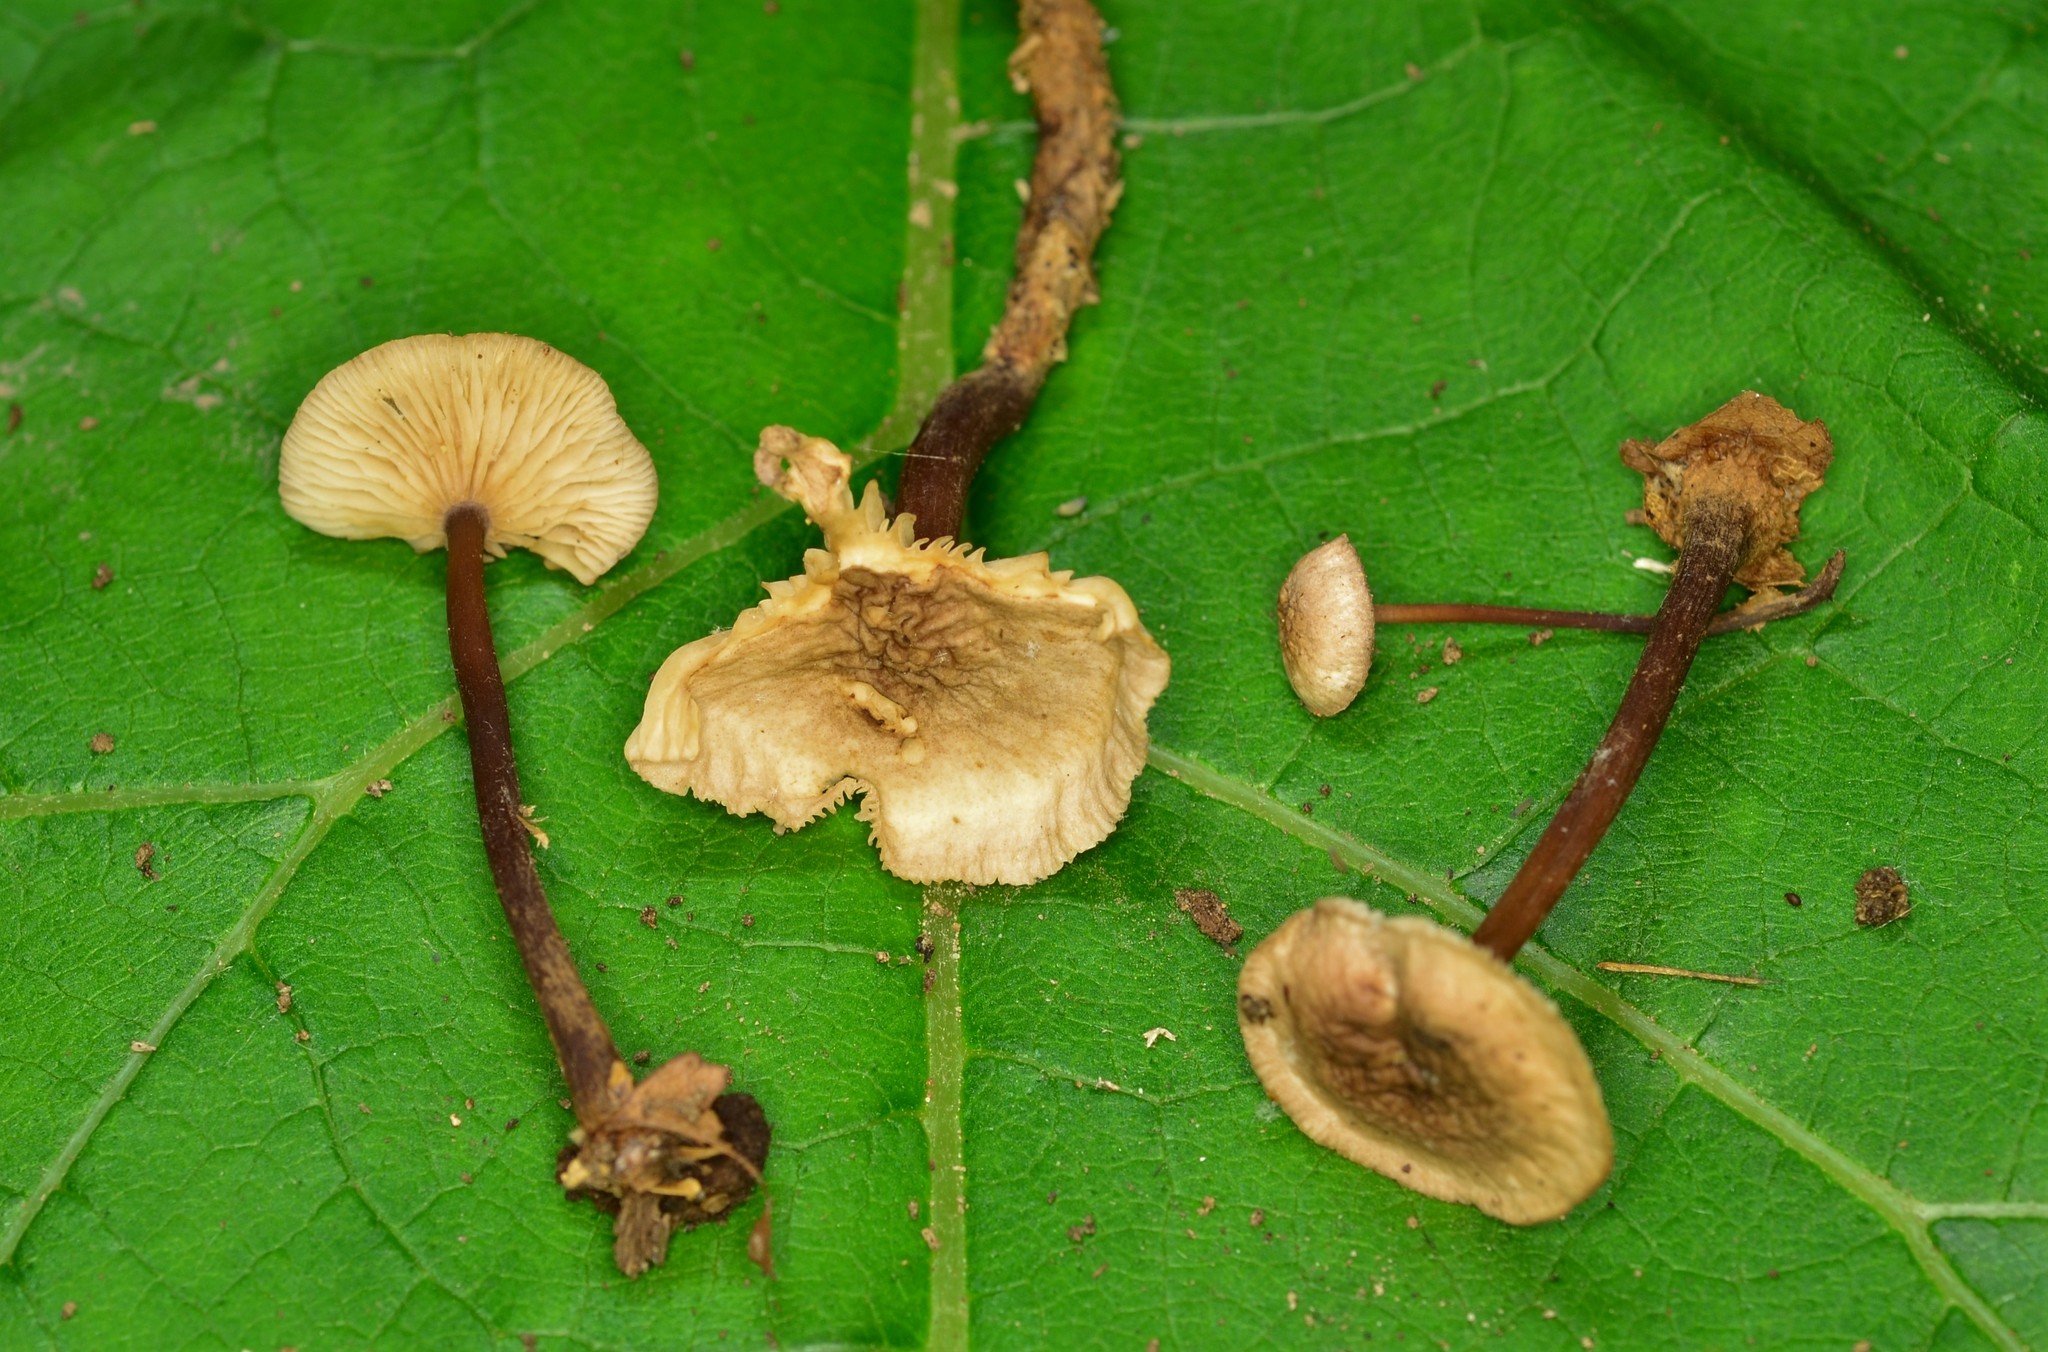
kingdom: Fungi
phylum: Basidiomycota
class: Agaricomycetes
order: Agaricales
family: Omphalotaceae
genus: Gymnopus
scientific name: Gymnopus semihirtipes
